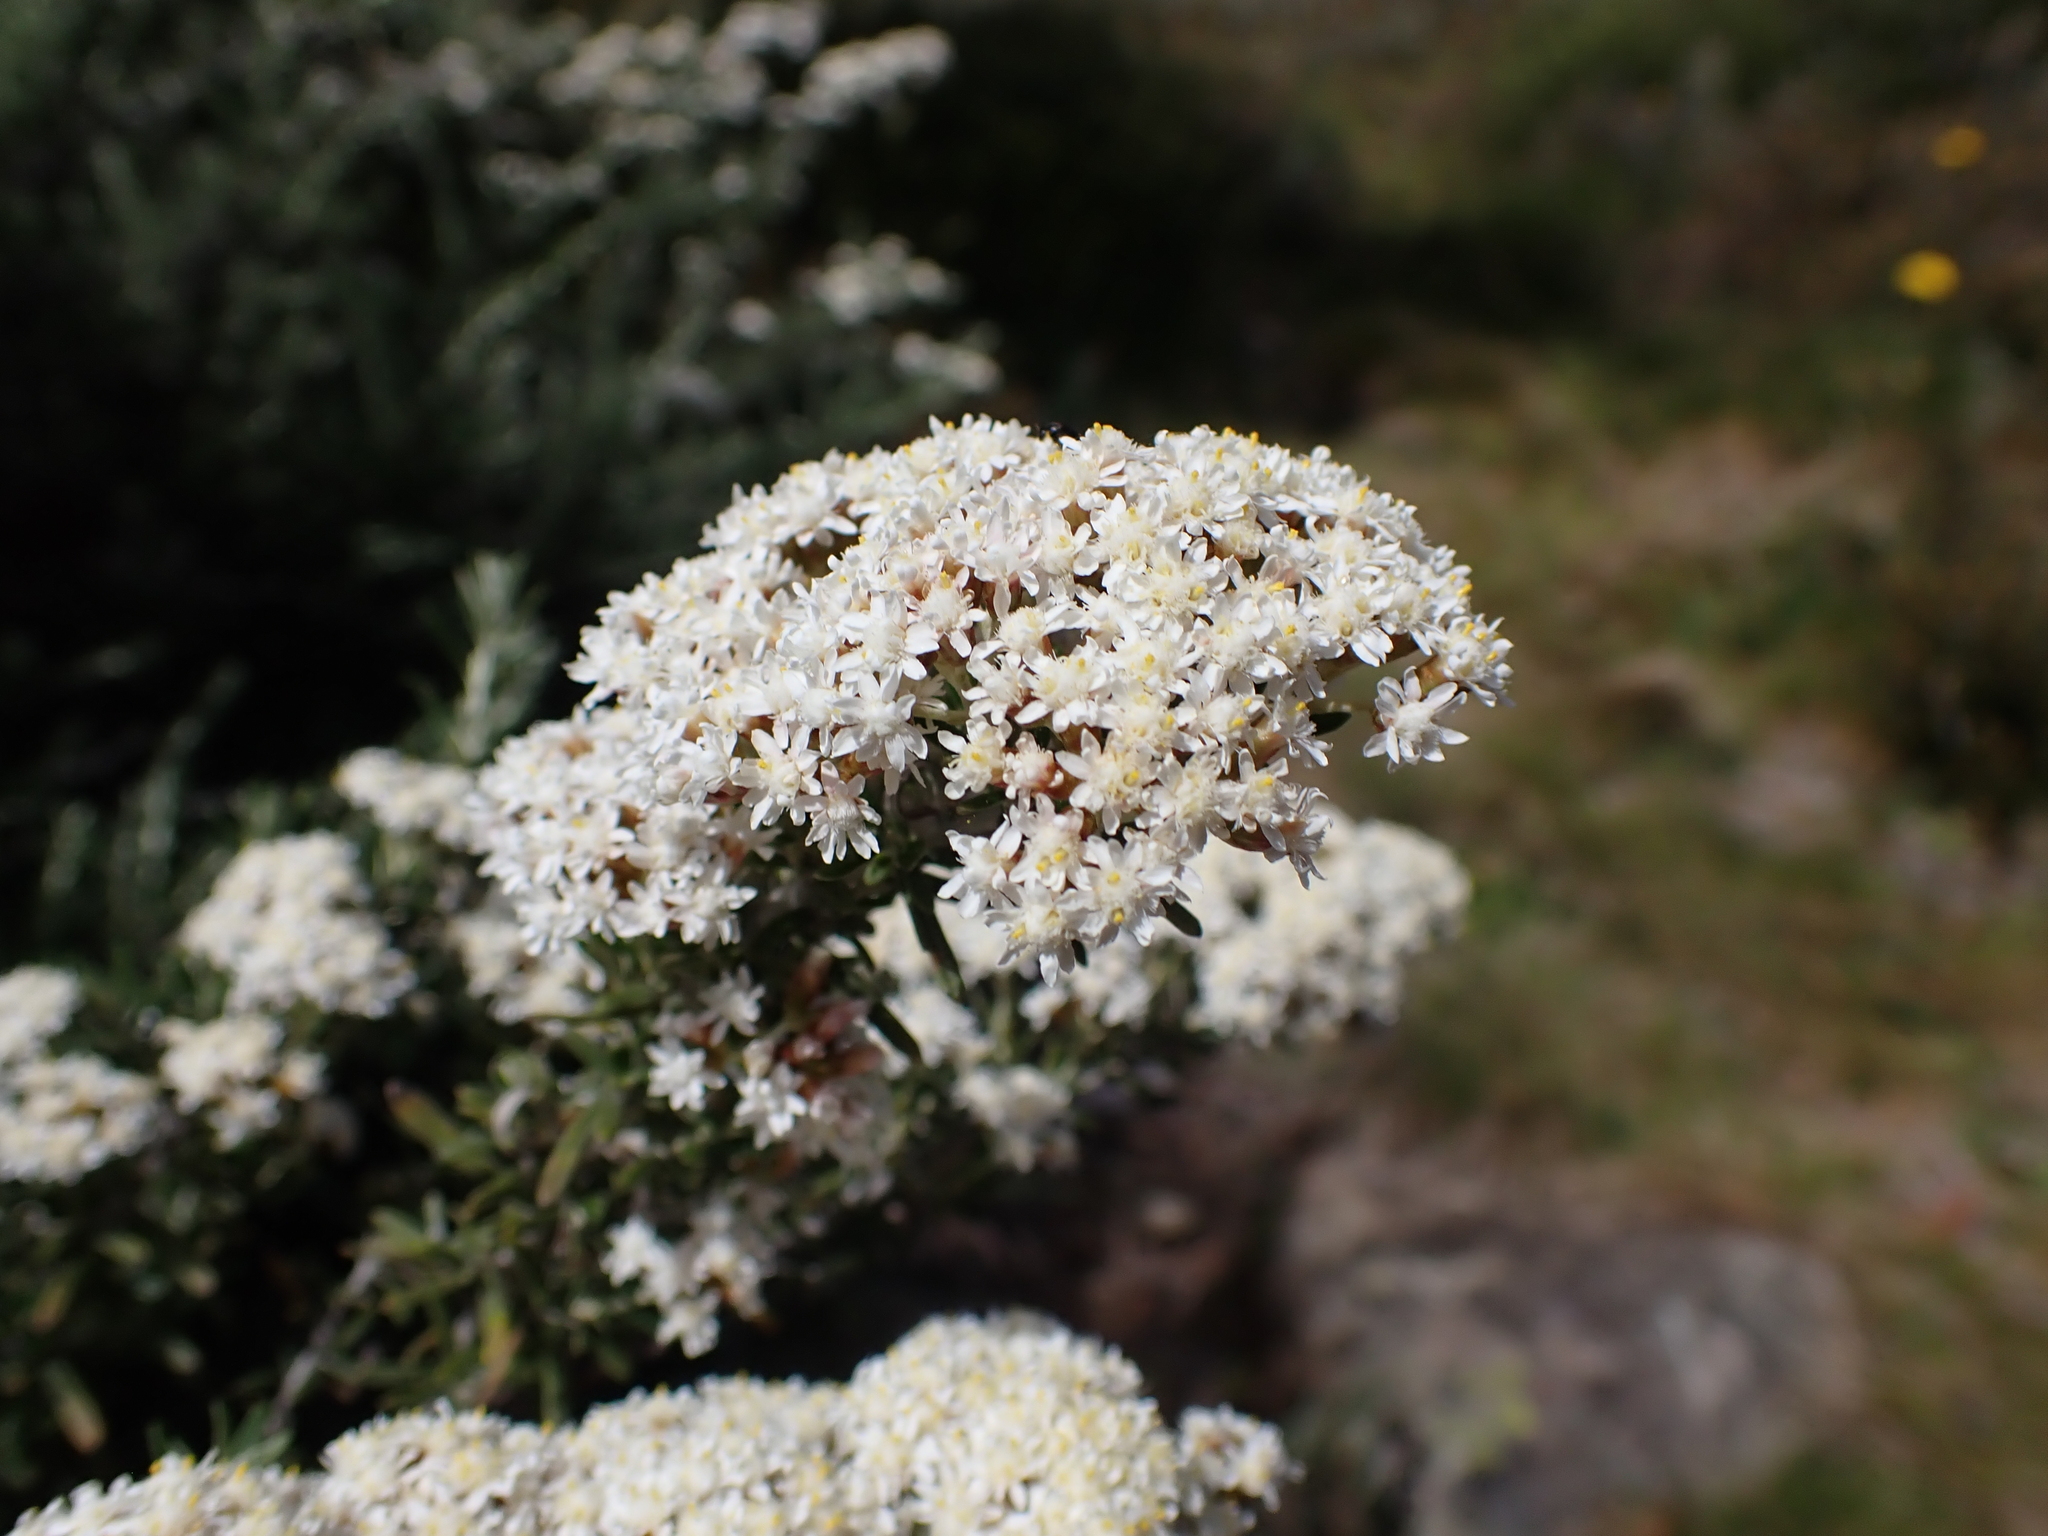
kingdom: Plantae
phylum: Tracheophyta
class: Magnoliopsida
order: Asterales
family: Asteraceae
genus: Ozothamnus
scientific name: Ozothamnus secundiflorus
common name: Cascade everlasting
